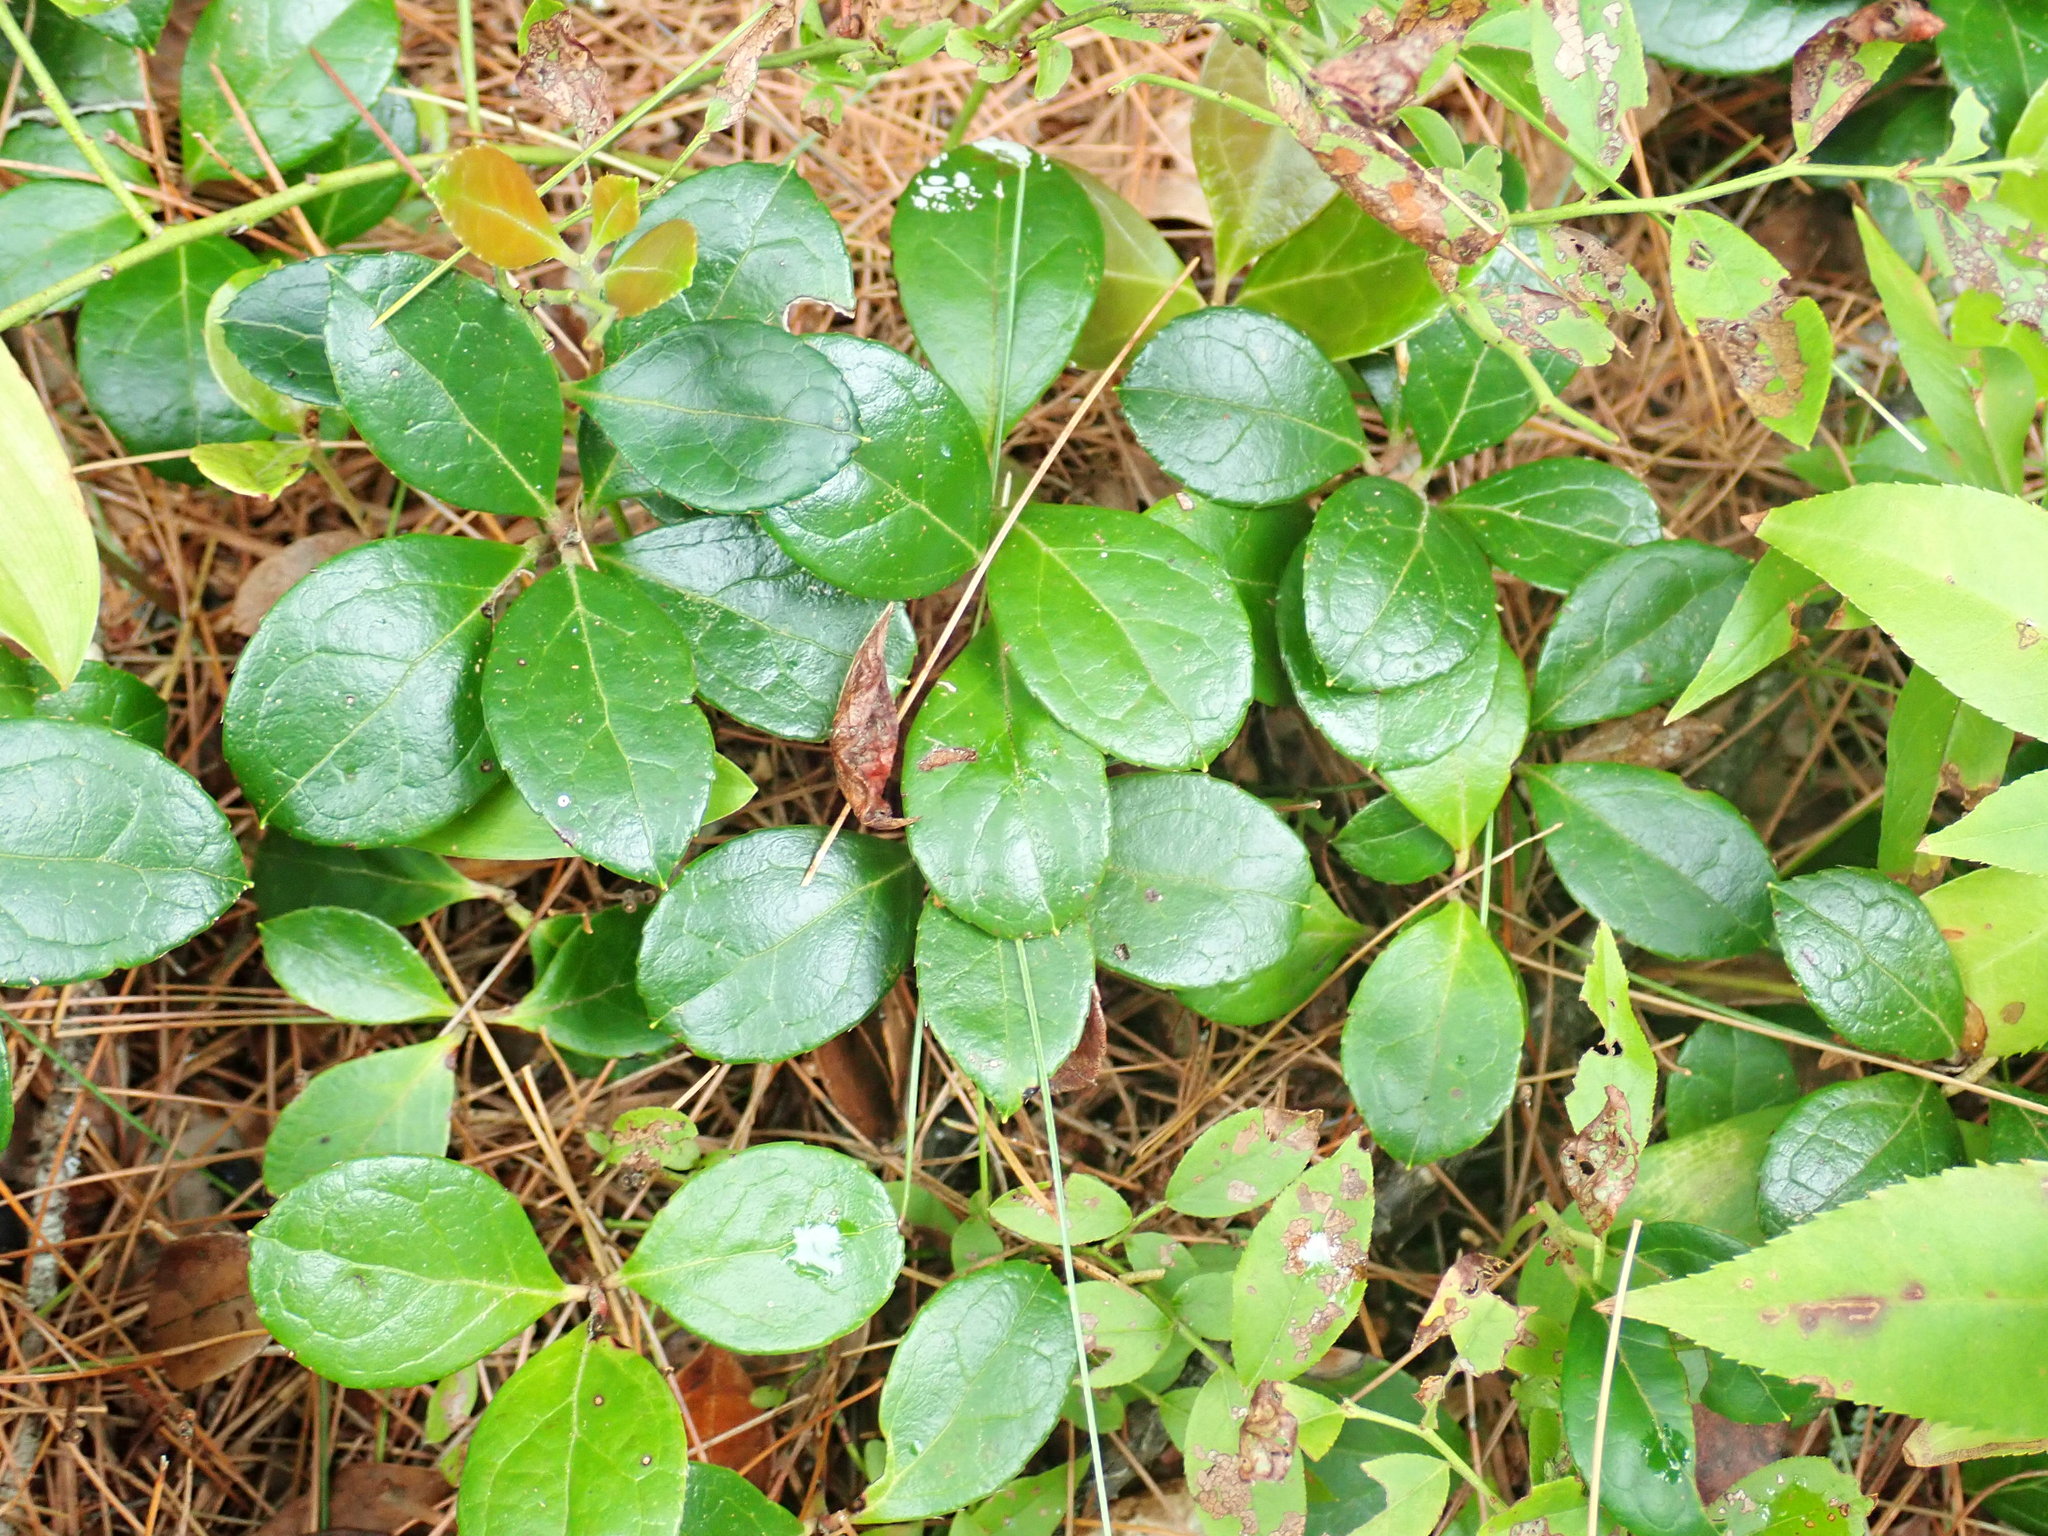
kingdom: Plantae
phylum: Tracheophyta
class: Magnoliopsida
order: Ericales
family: Ericaceae
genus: Gaultheria
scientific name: Gaultheria procumbens
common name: Checkerberry
